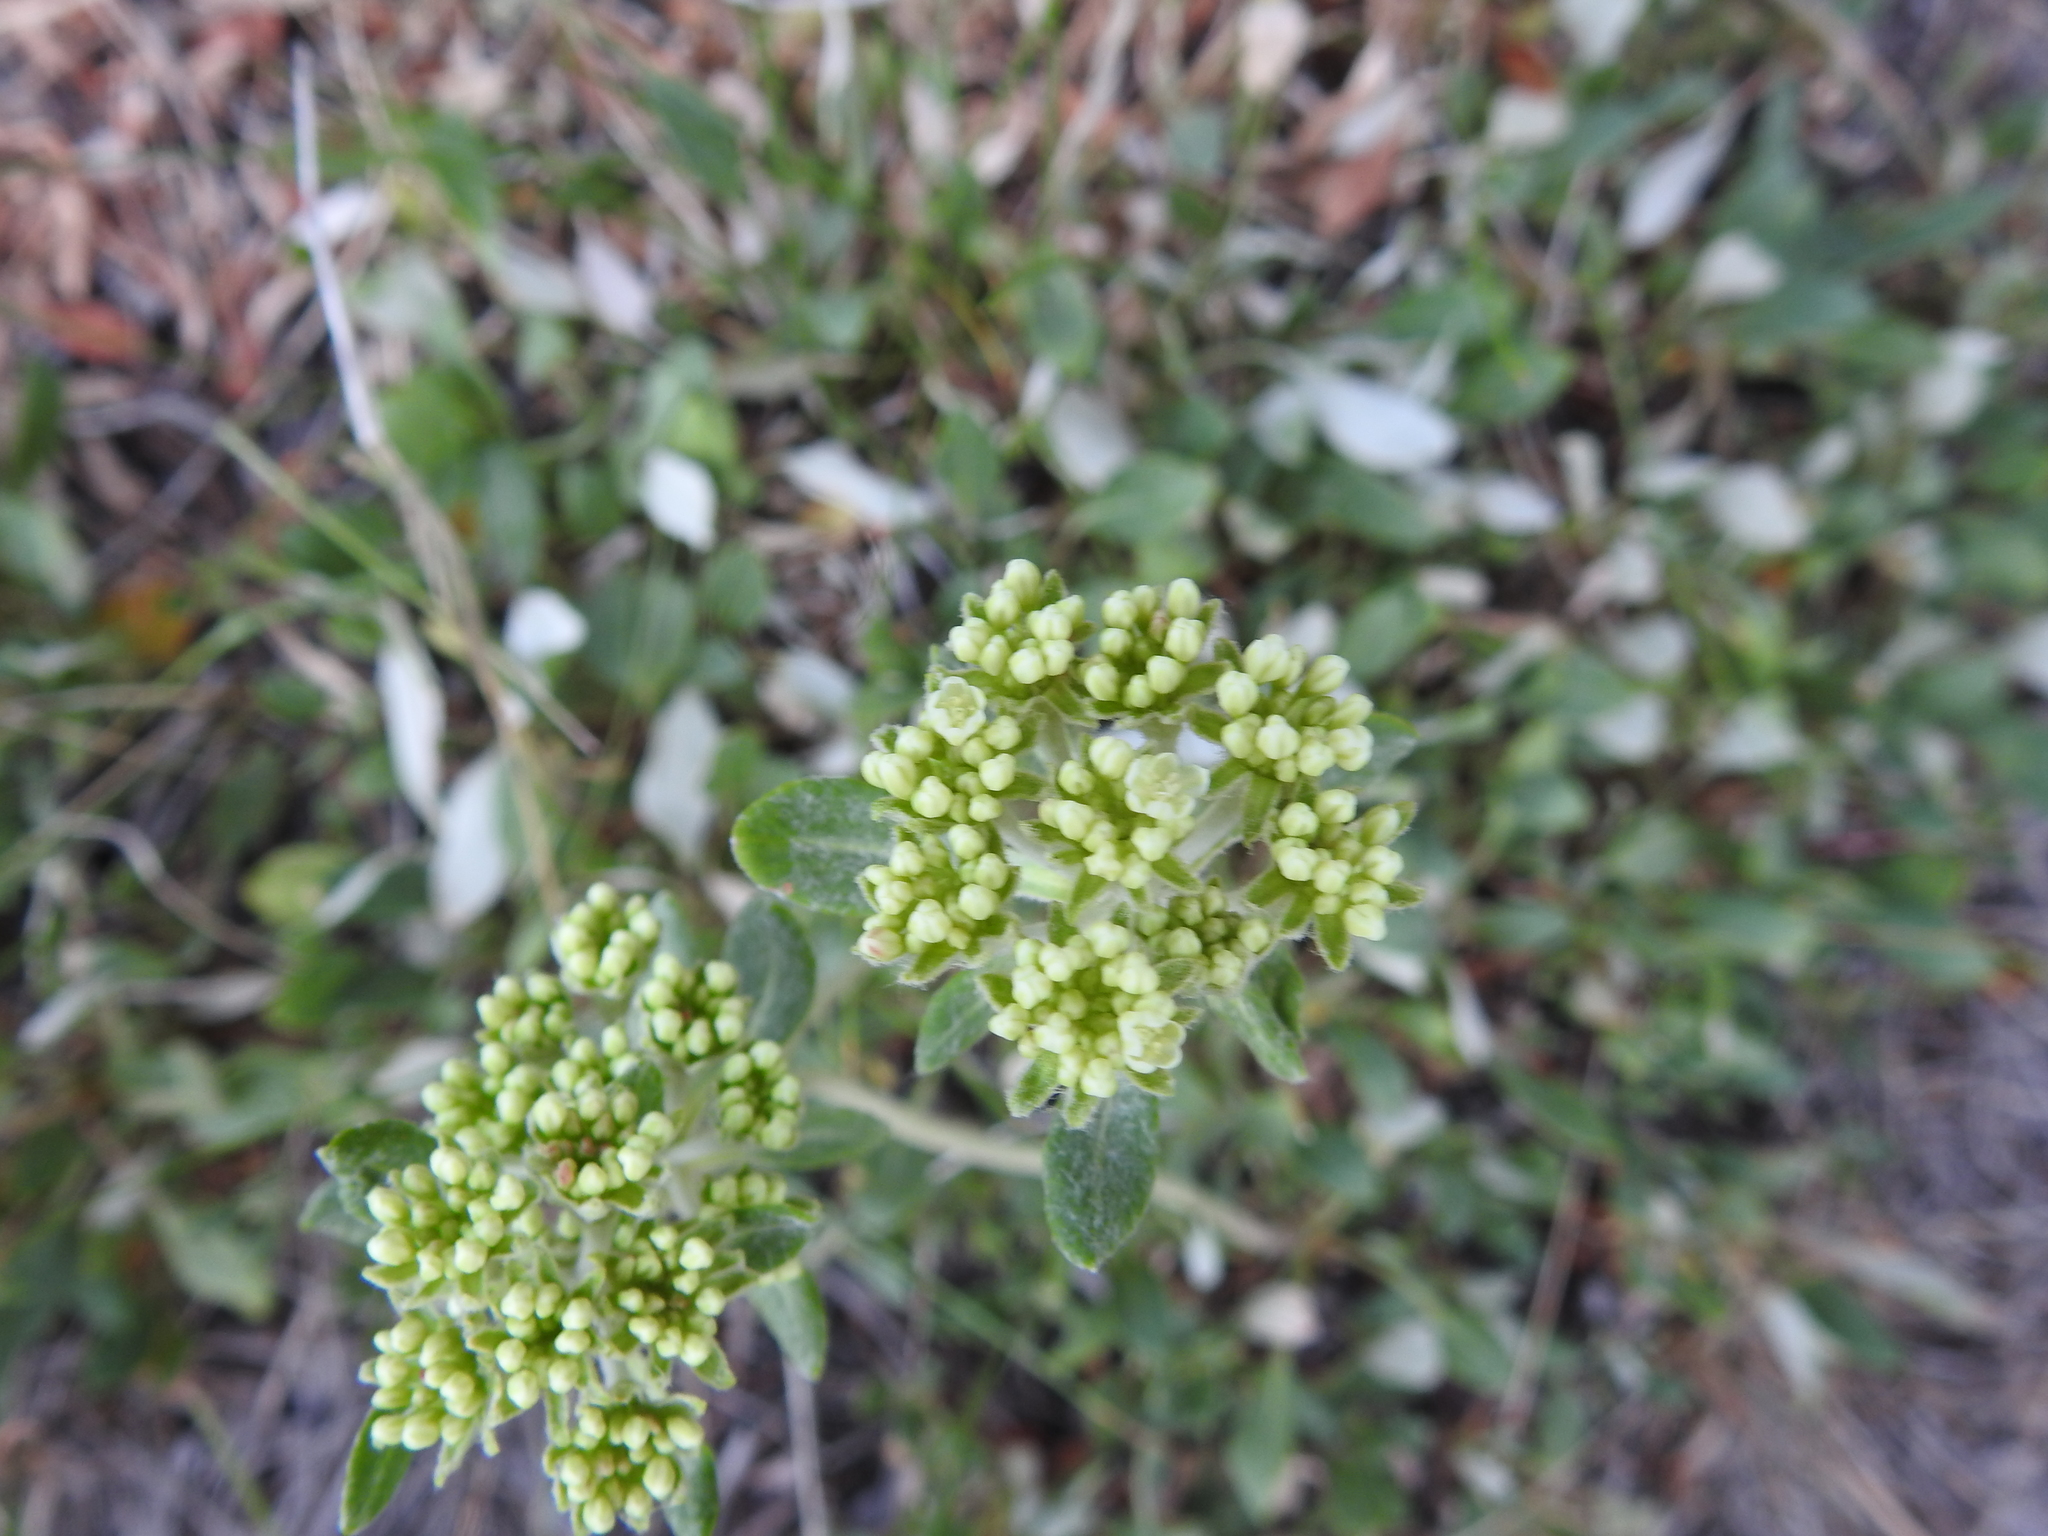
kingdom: Plantae
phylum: Tracheophyta
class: Magnoliopsida
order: Caryophyllales
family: Polygonaceae
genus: Eriogonum
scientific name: Eriogonum umbellatum
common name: Sulfur-buckwheat
